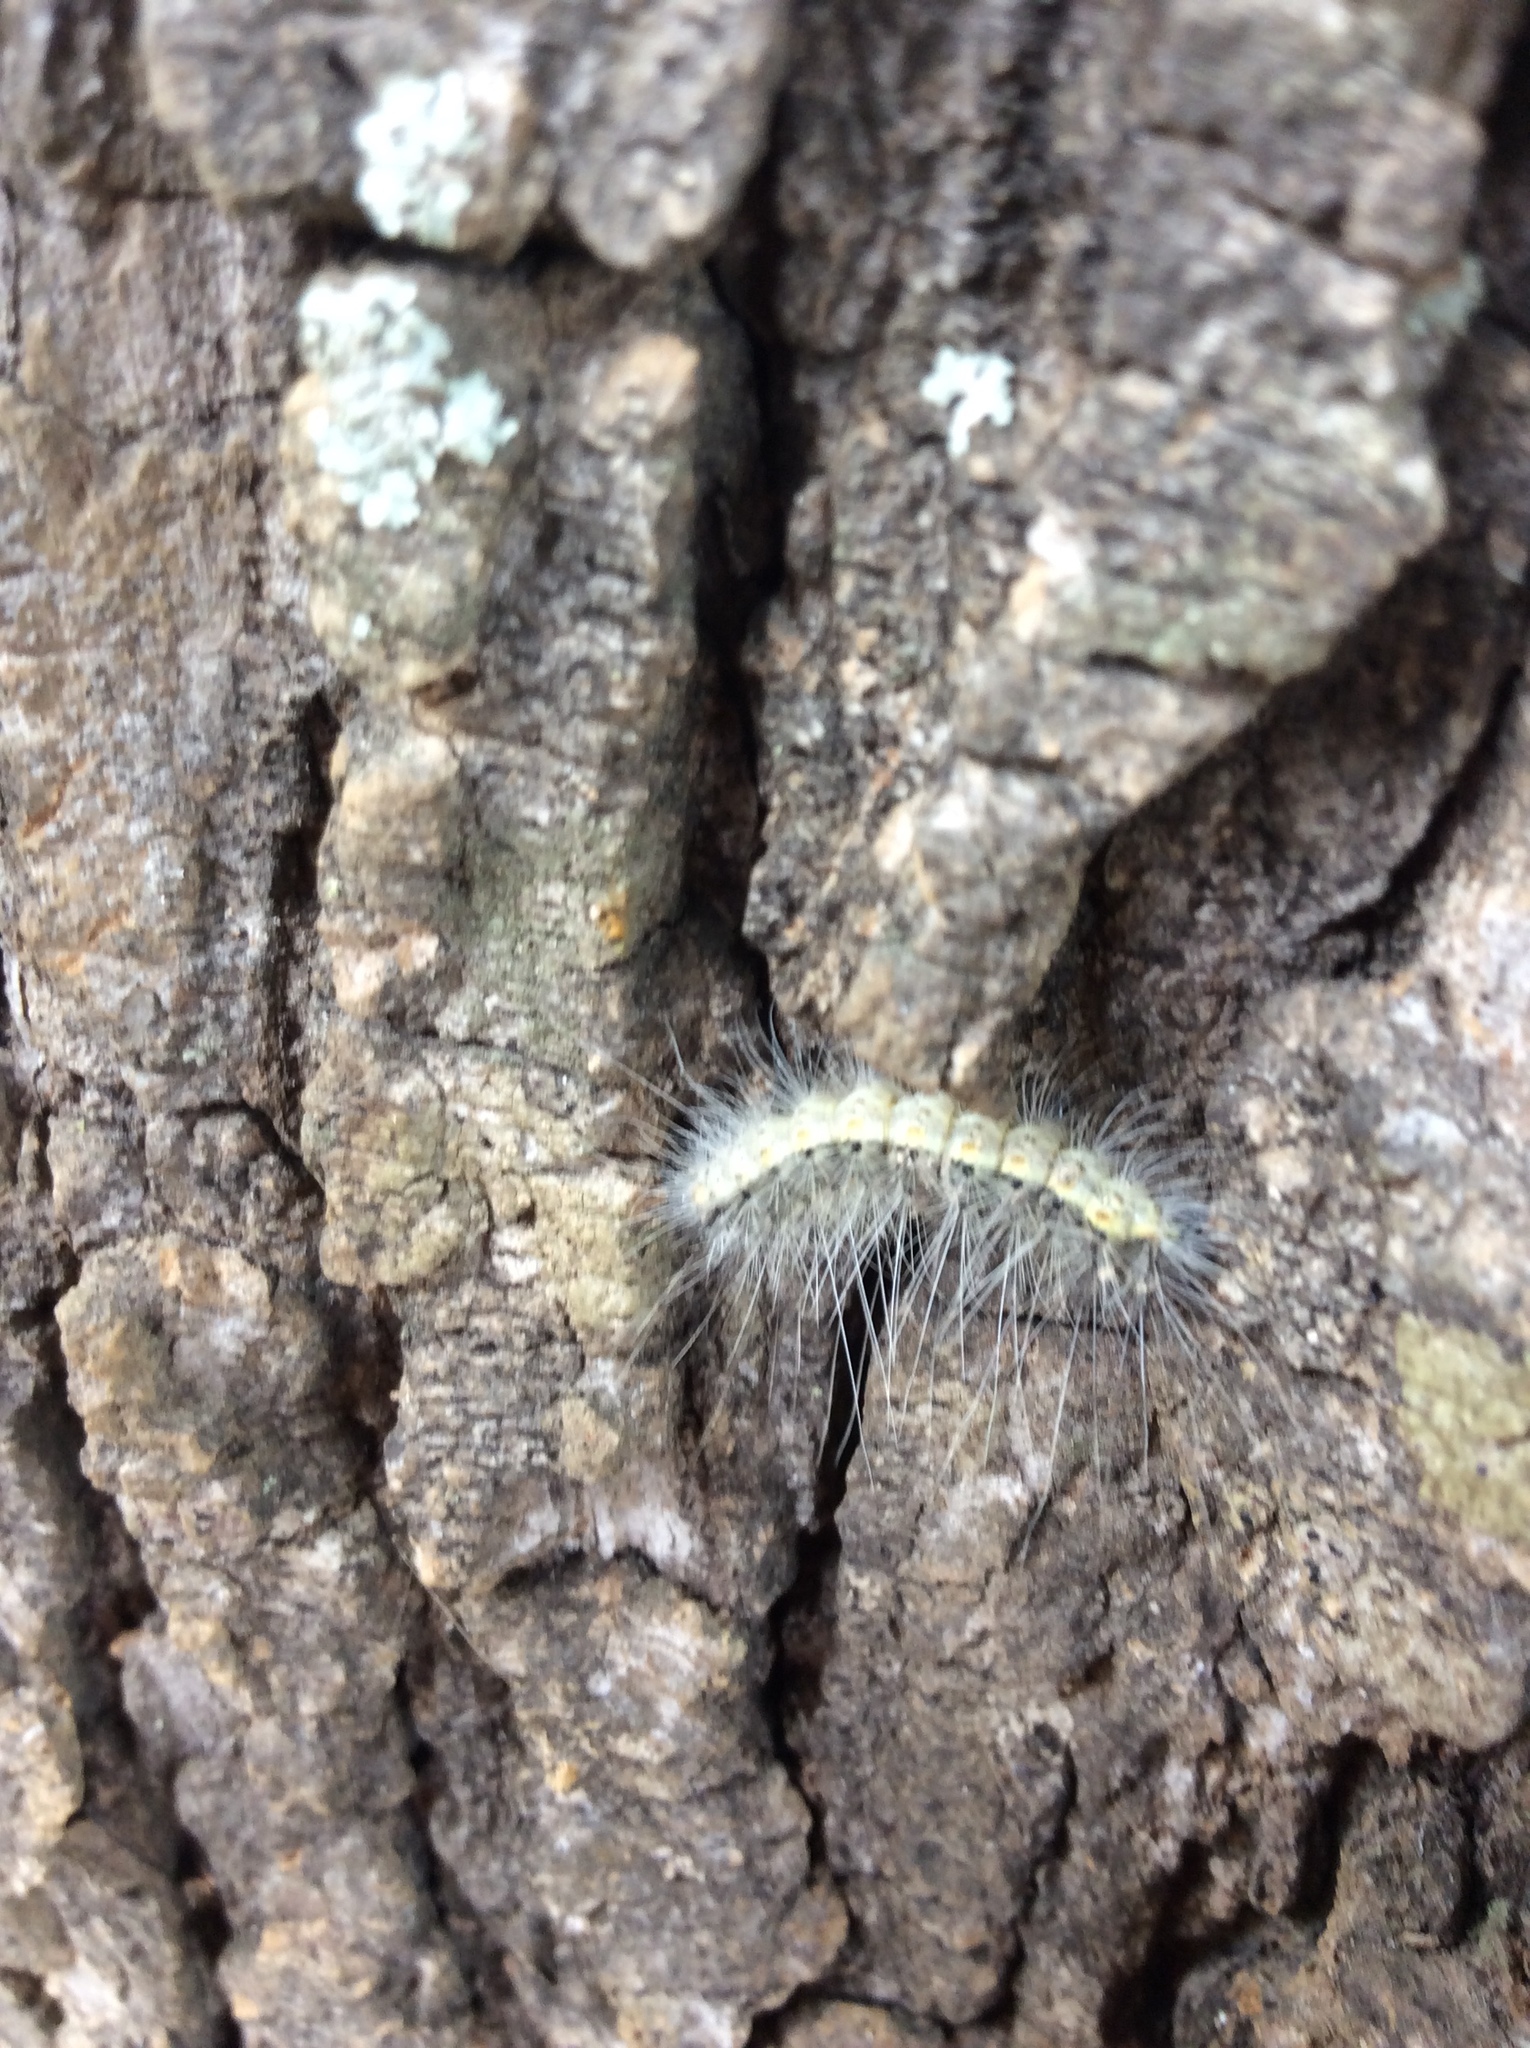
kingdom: Animalia
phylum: Arthropoda
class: Insecta
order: Lepidoptera
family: Erebidae
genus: Hyphantria
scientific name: Hyphantria cunea
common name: American white moth
